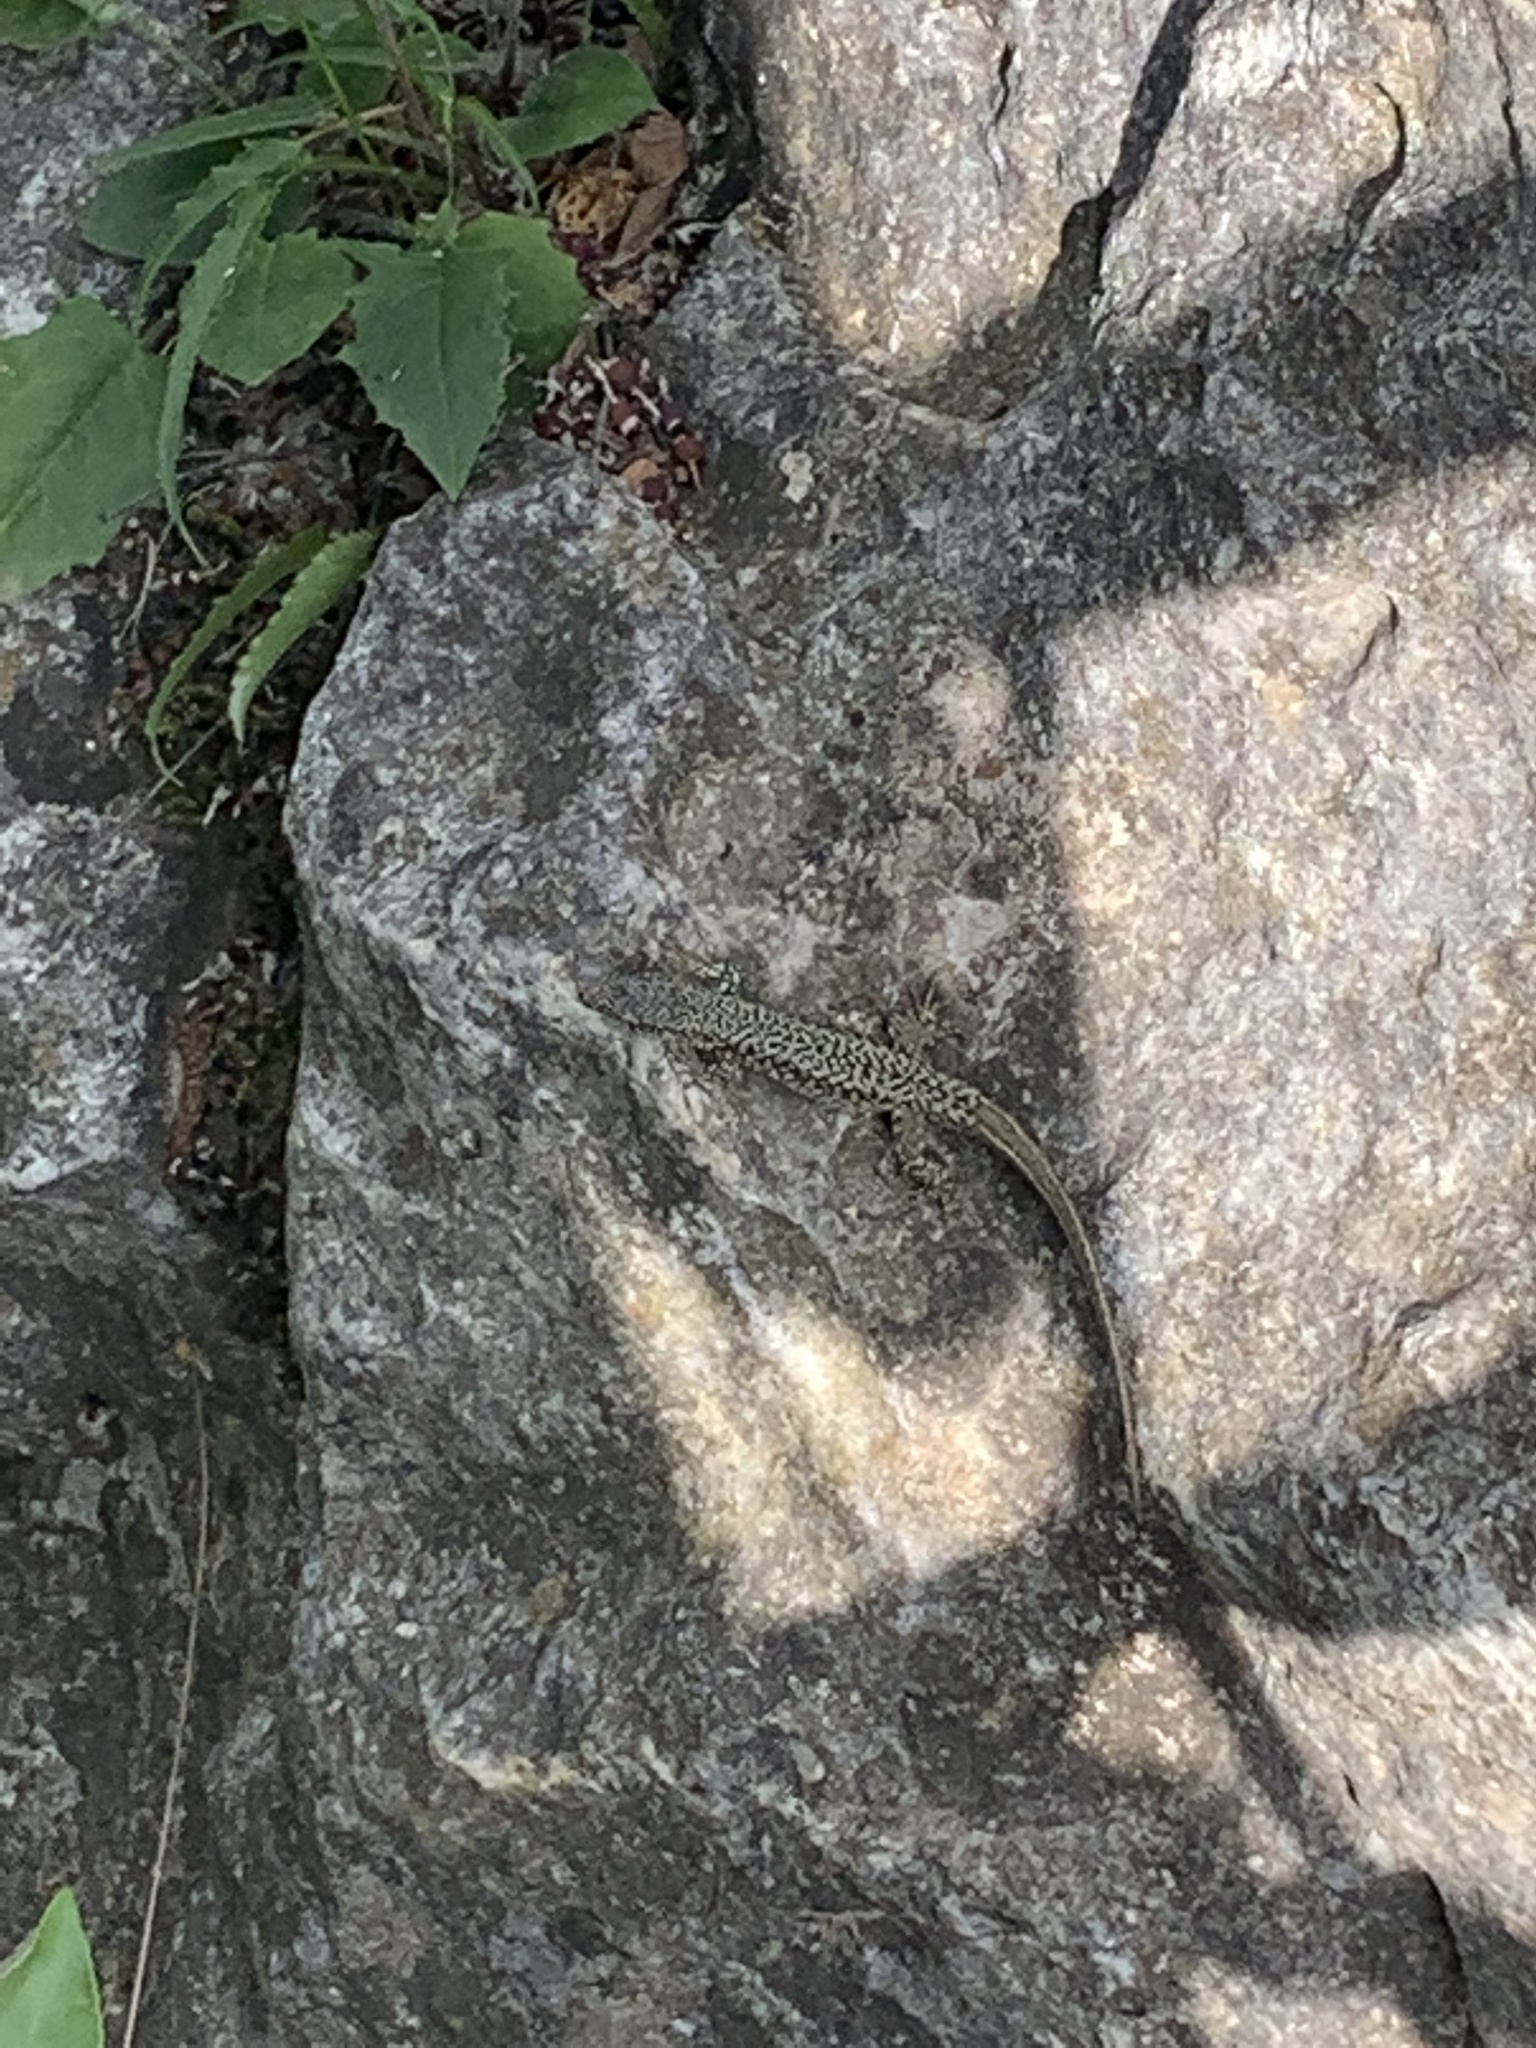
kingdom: Animalia
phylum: Chordata
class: Squamata
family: Lacertidae
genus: Podarcis
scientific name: Podarcis muralis
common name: Common wall lizard
